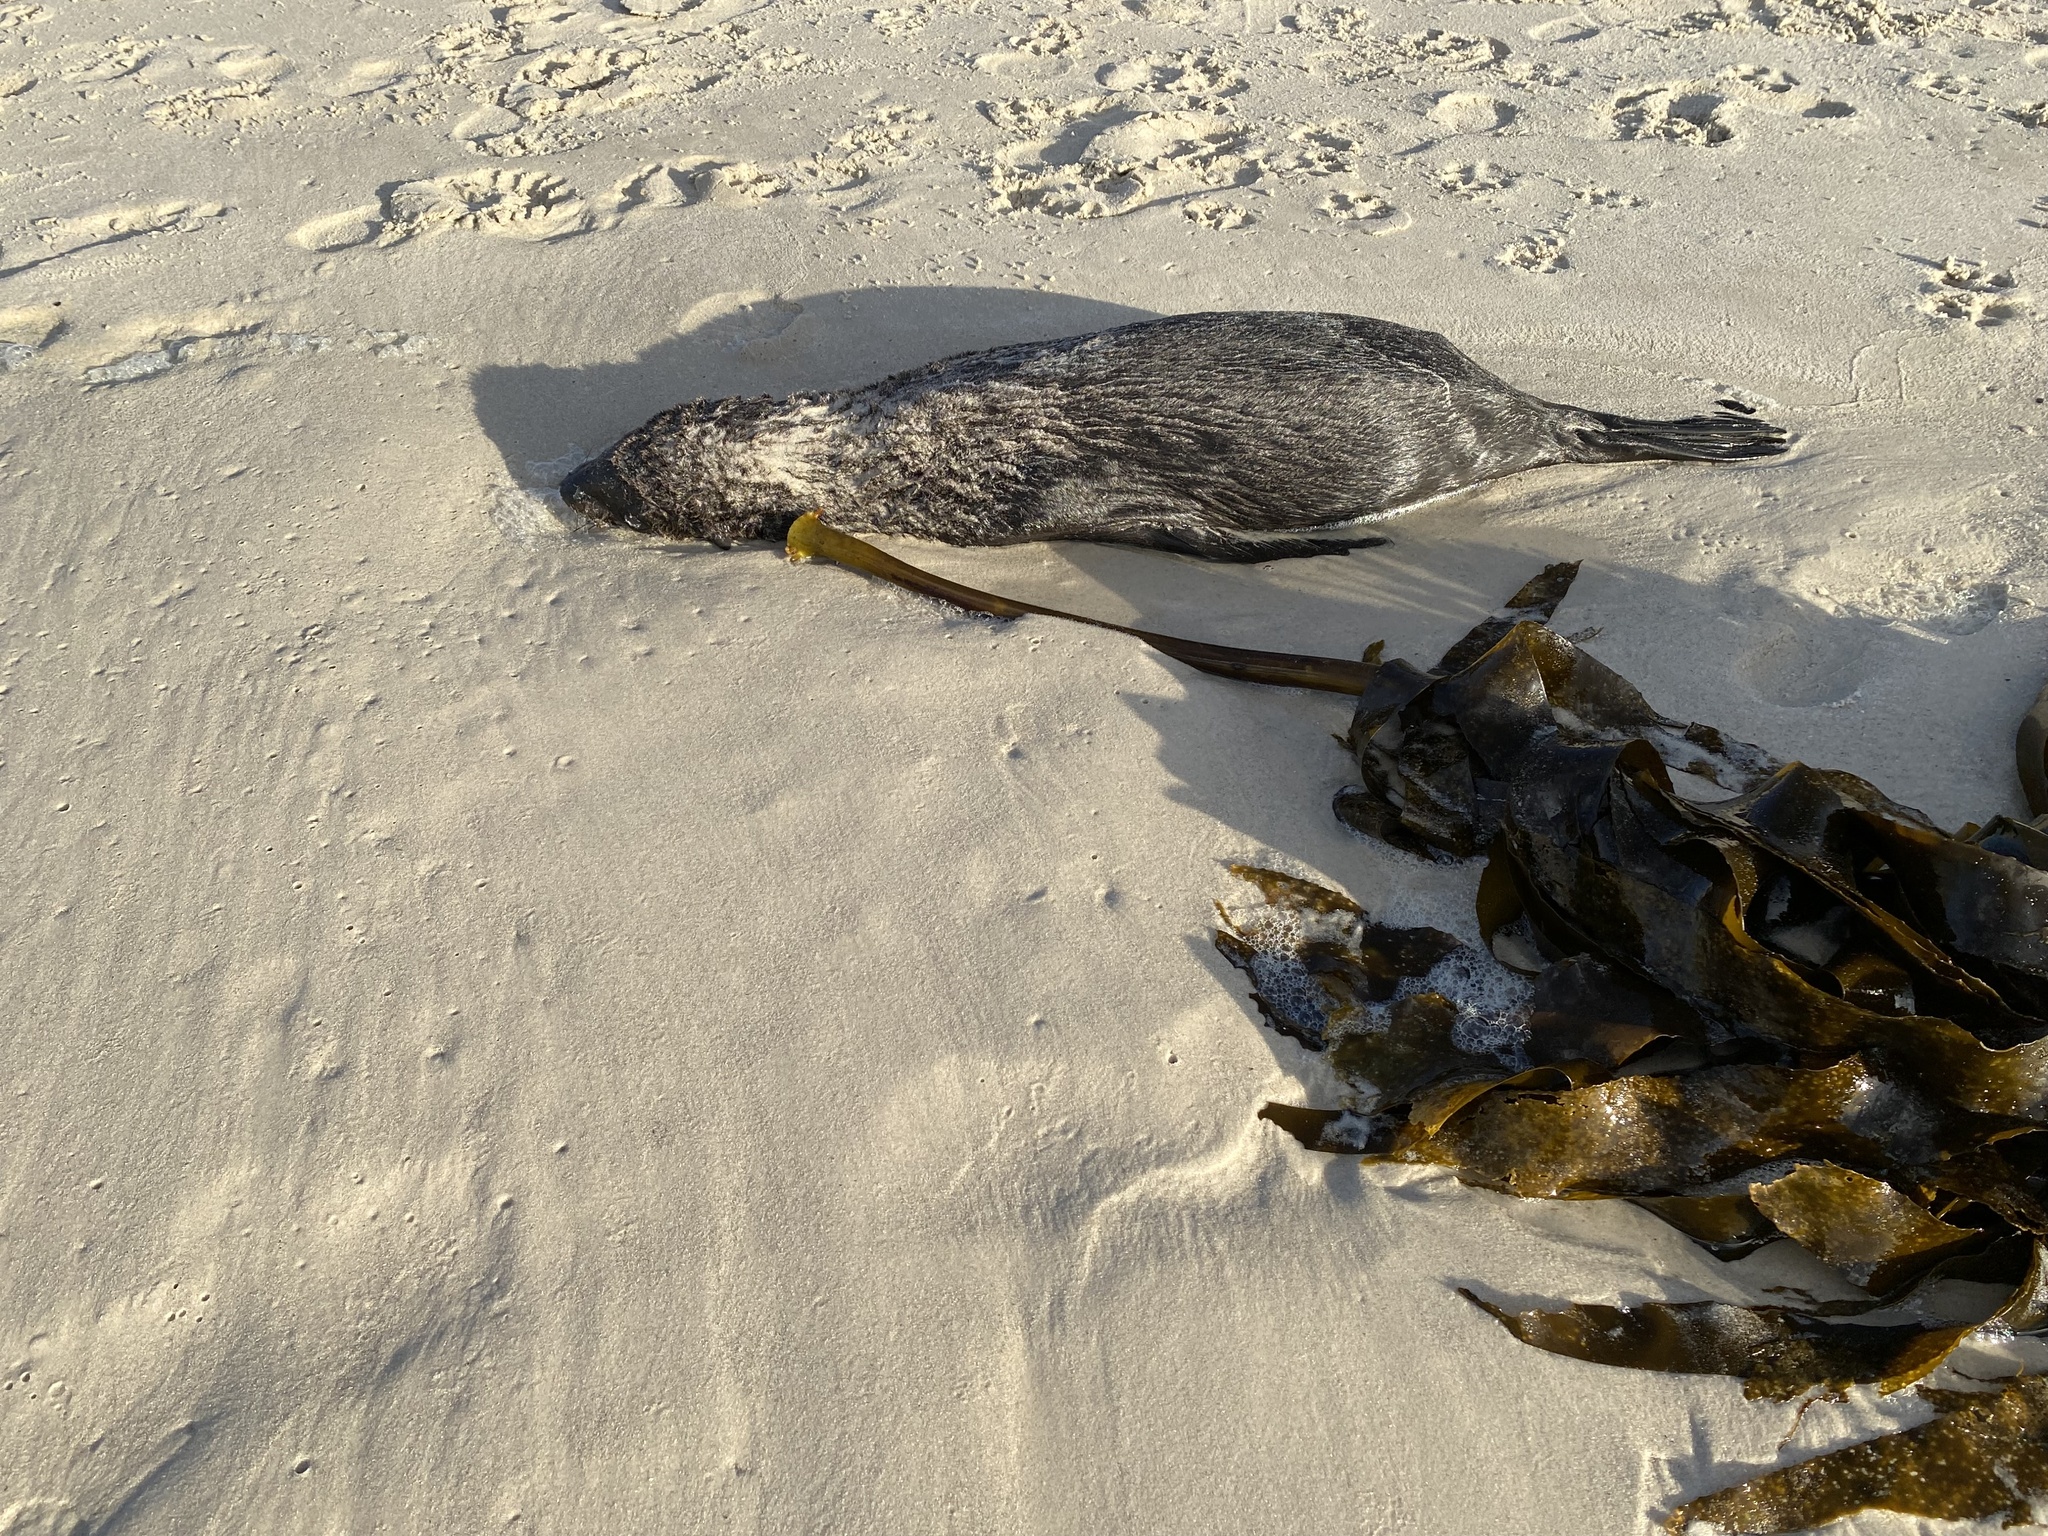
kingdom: Animalia
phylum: Chordata
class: Mammalia
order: Carnivora
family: Otariidae
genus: Arctocephalus
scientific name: Arctocephalus pusillus
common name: Brown fur seal
